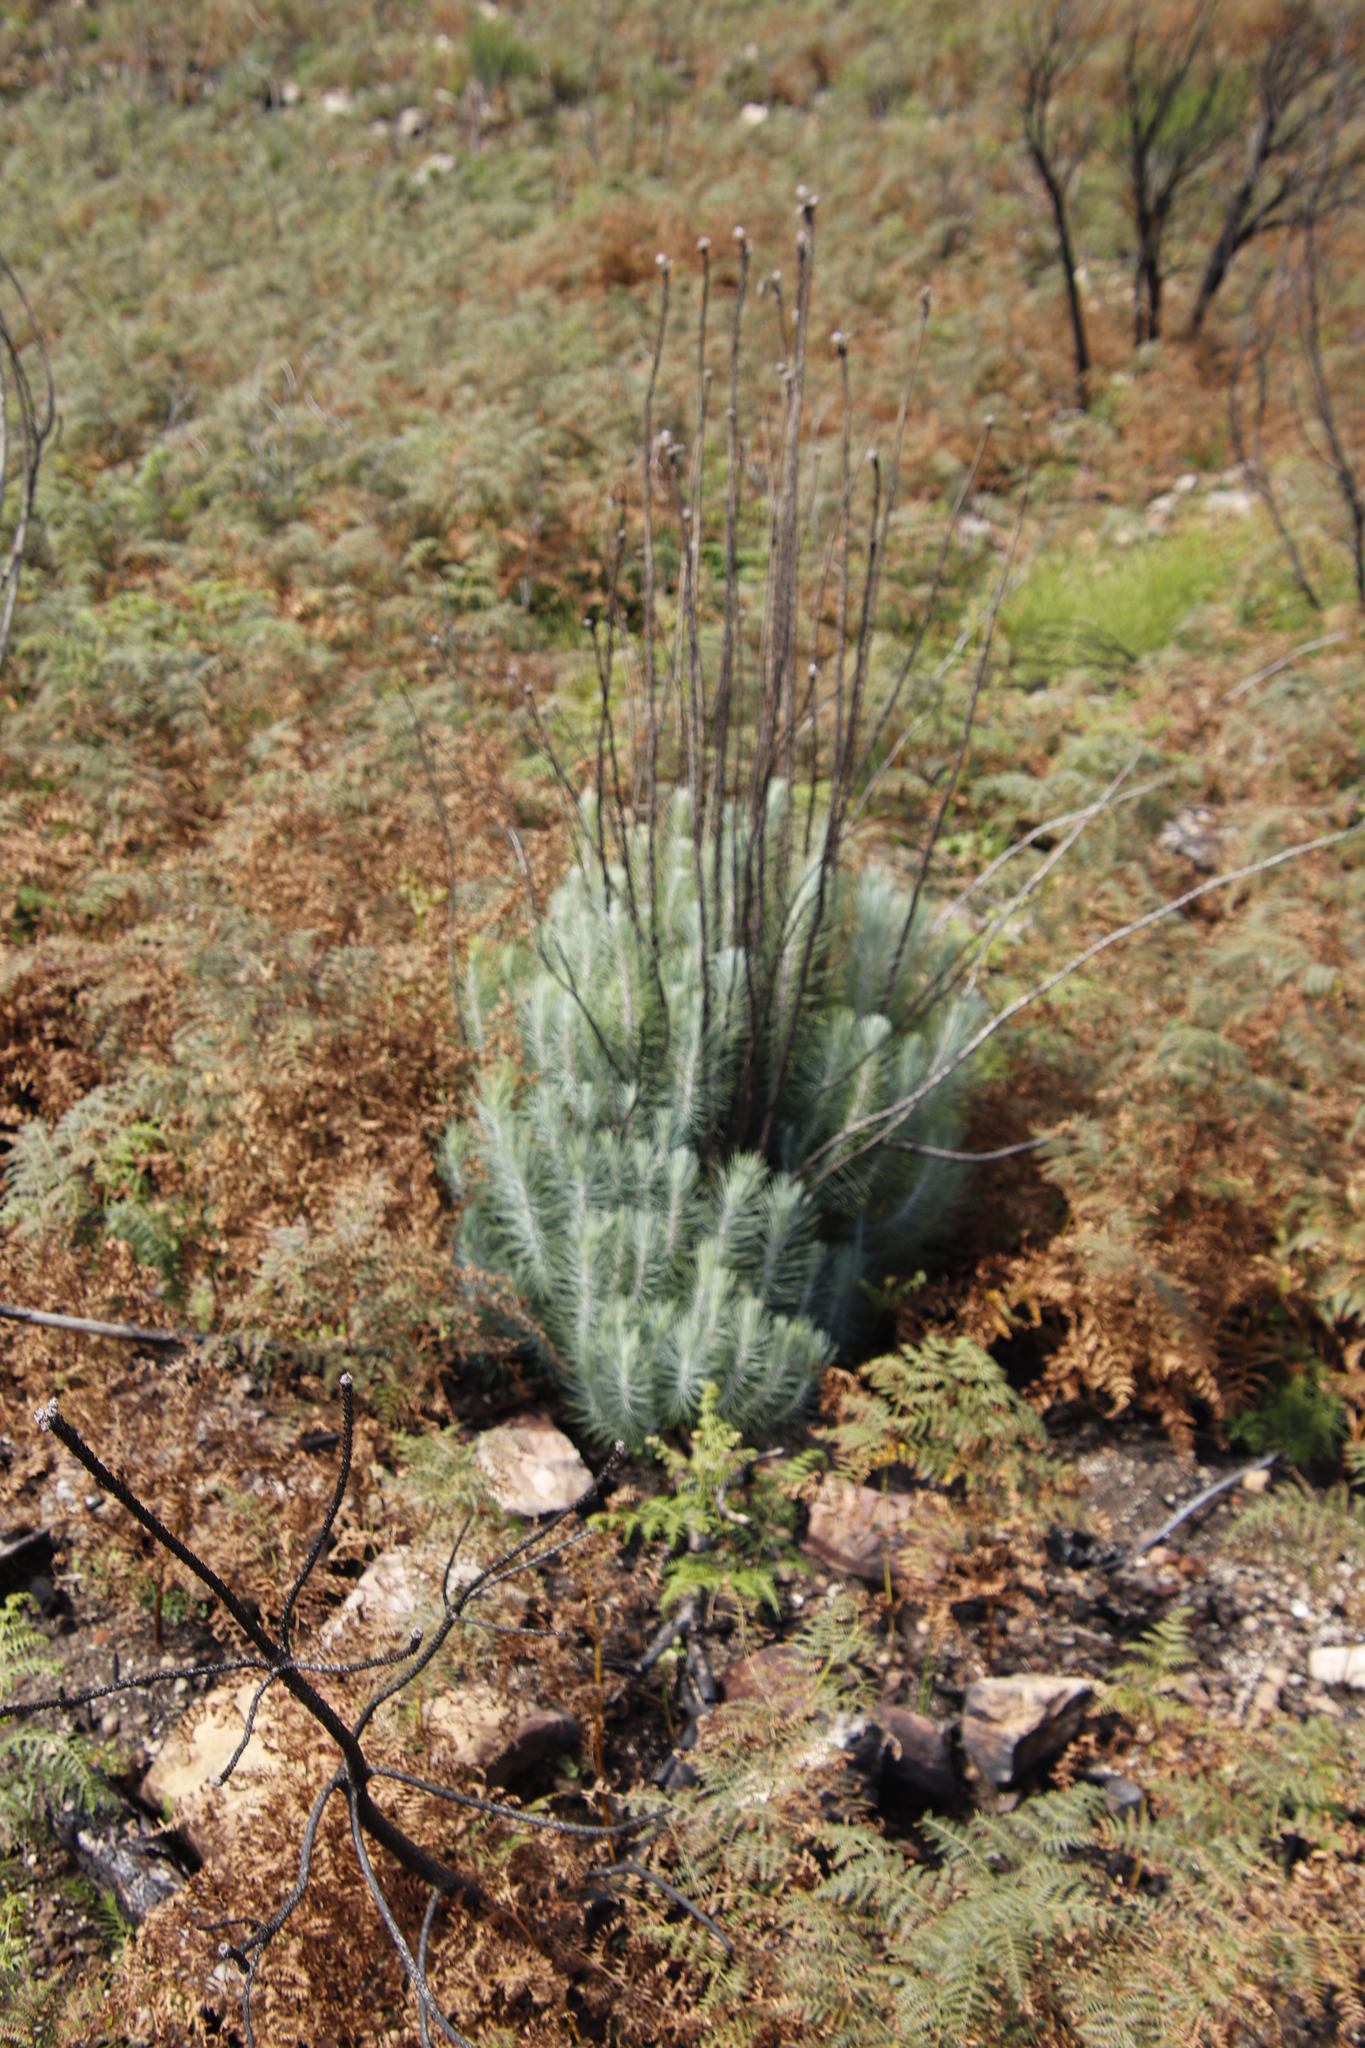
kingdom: Plantae
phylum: Tracheophyta
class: Pinopsida
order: Pinales
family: Pinaceae
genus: Pinus
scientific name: Pinus canariensis
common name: Canary islands pine
